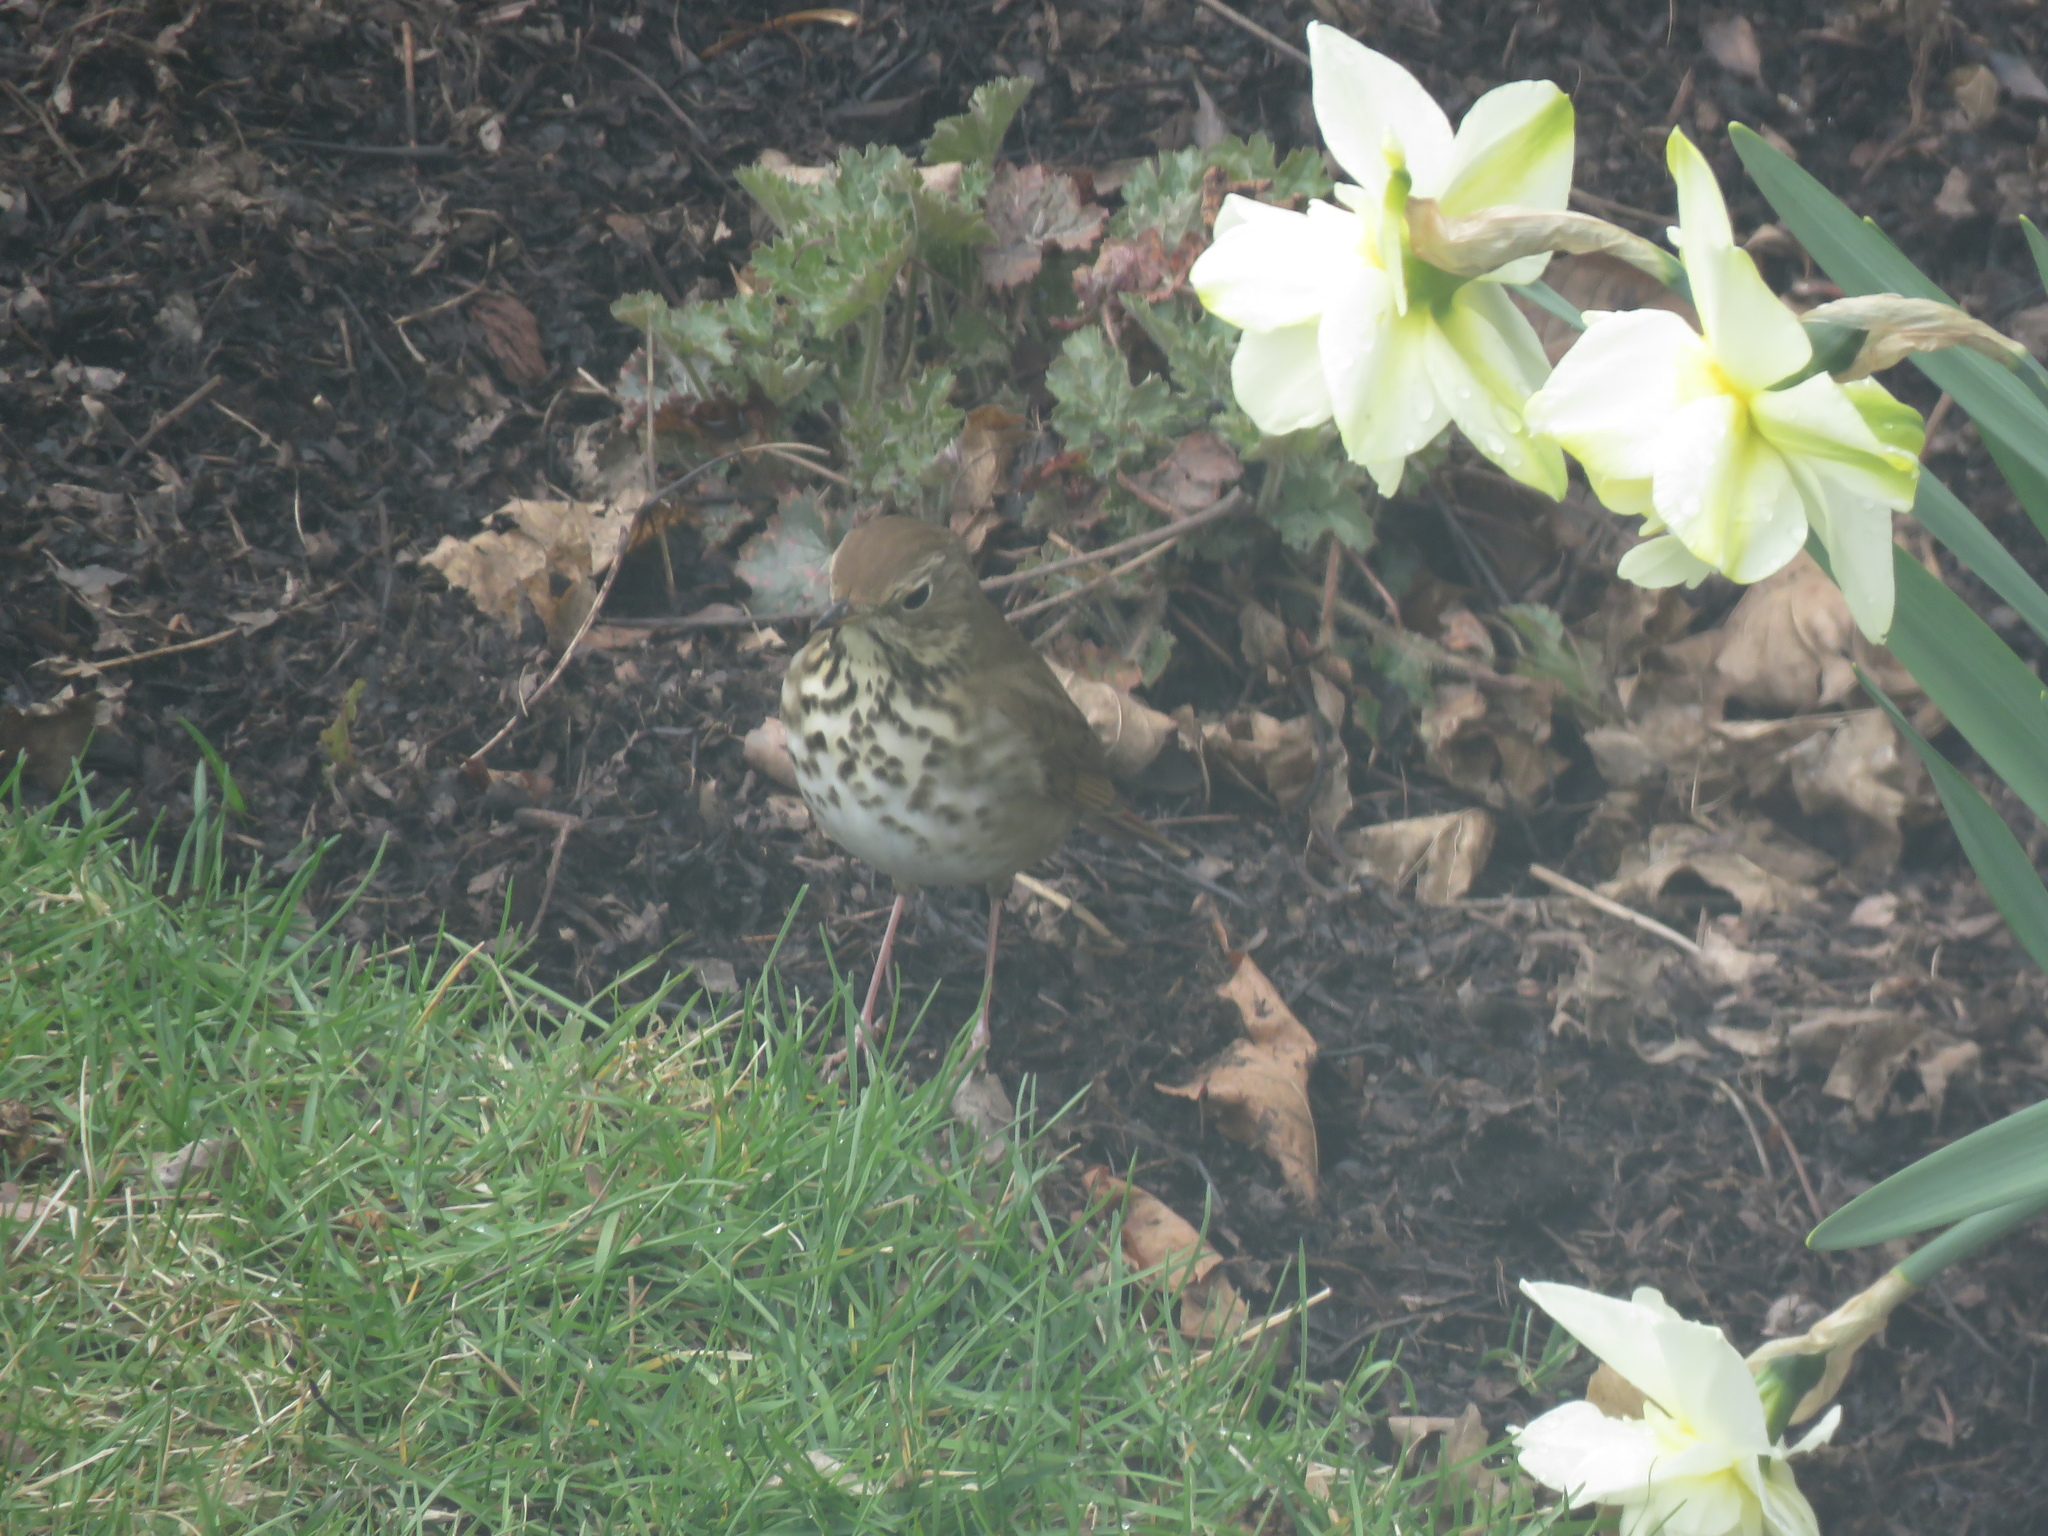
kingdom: Animalia
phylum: Chordata
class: Aves
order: Passeriformes
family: Turdidae
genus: Catharus
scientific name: Catharus guttatus
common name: Hermit thrush
